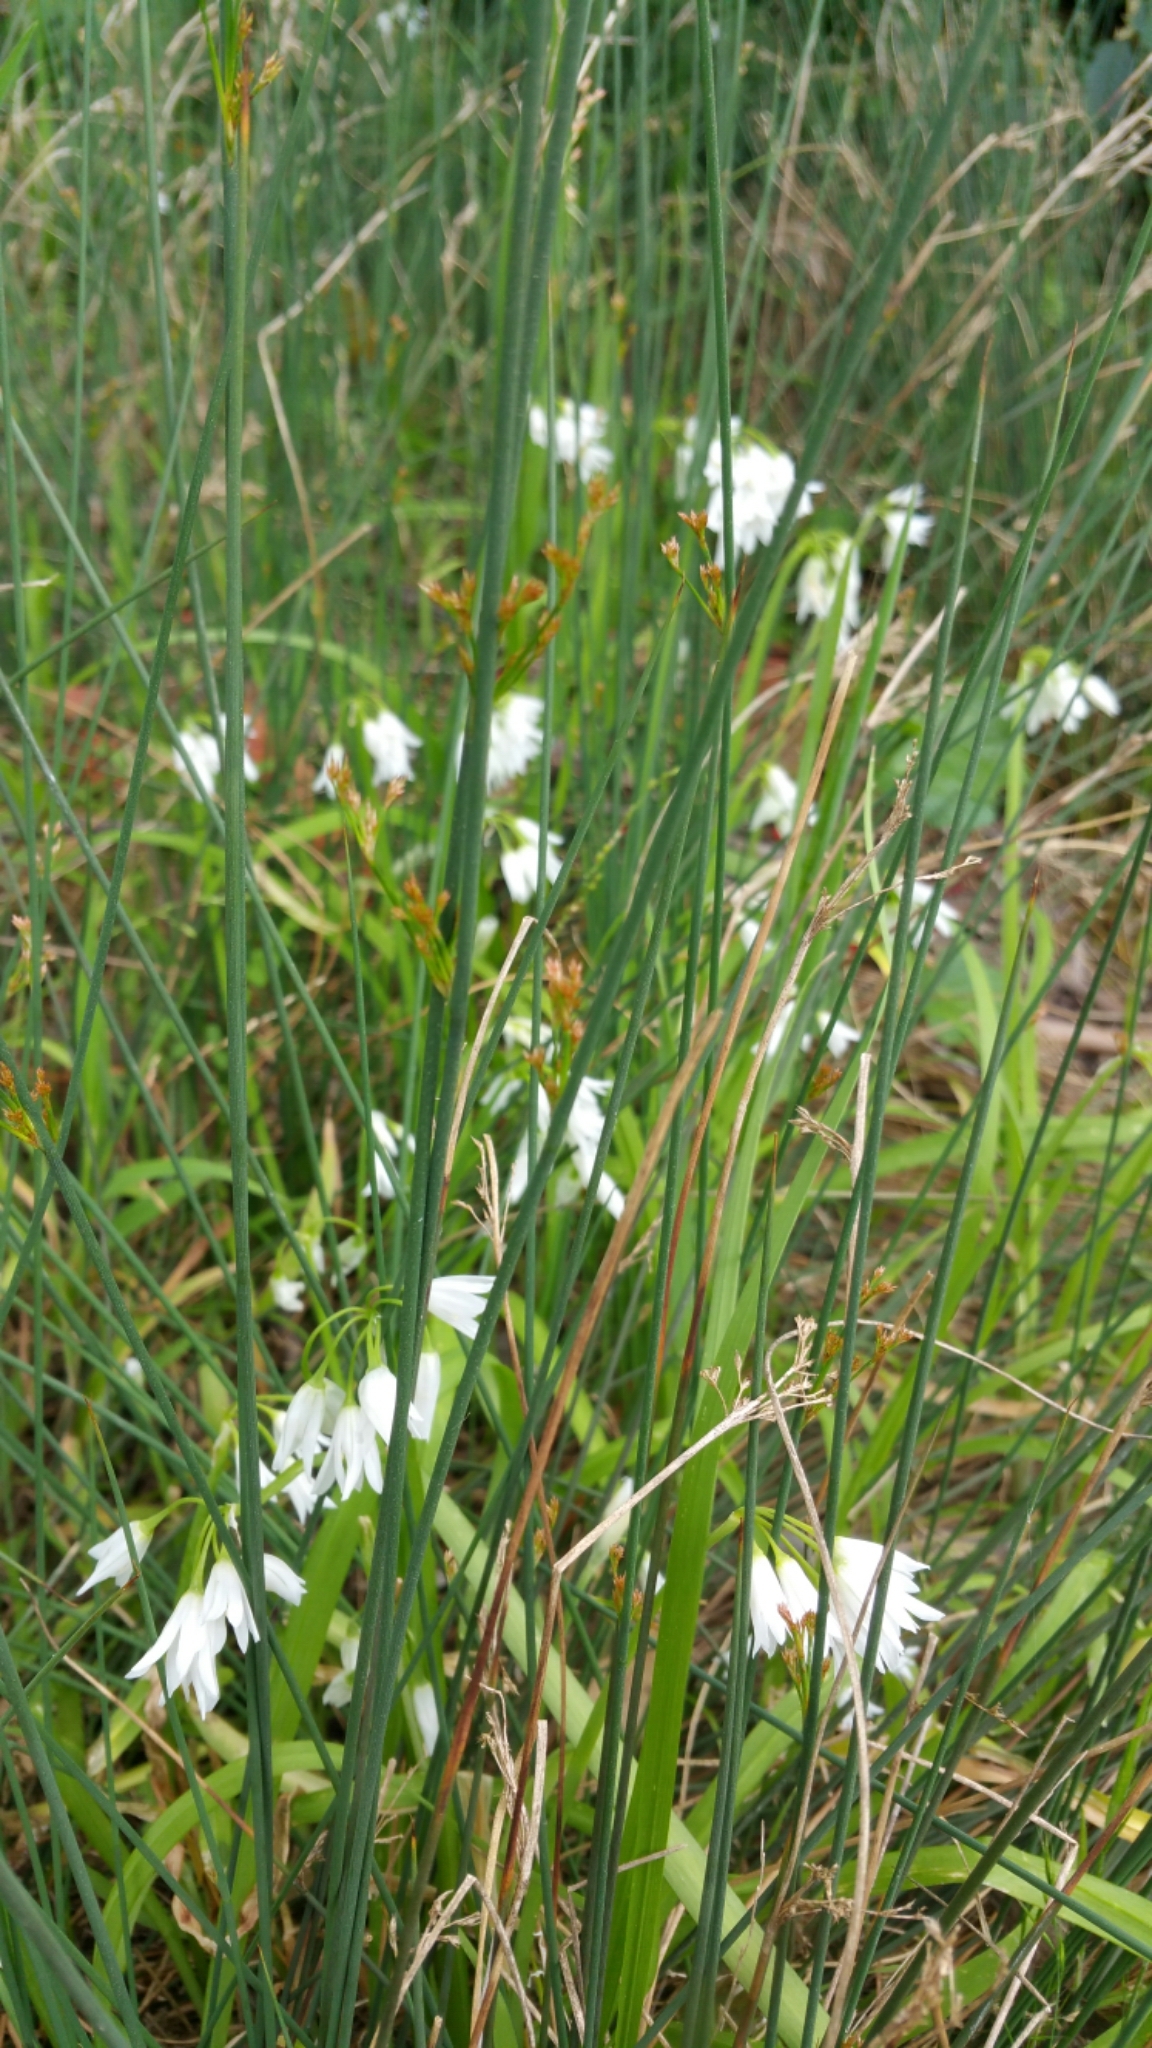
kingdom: Plantae
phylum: Tracheophyta
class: Liliopsida
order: Poales
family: Juncaceae
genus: Juncus
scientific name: Juncus patens
